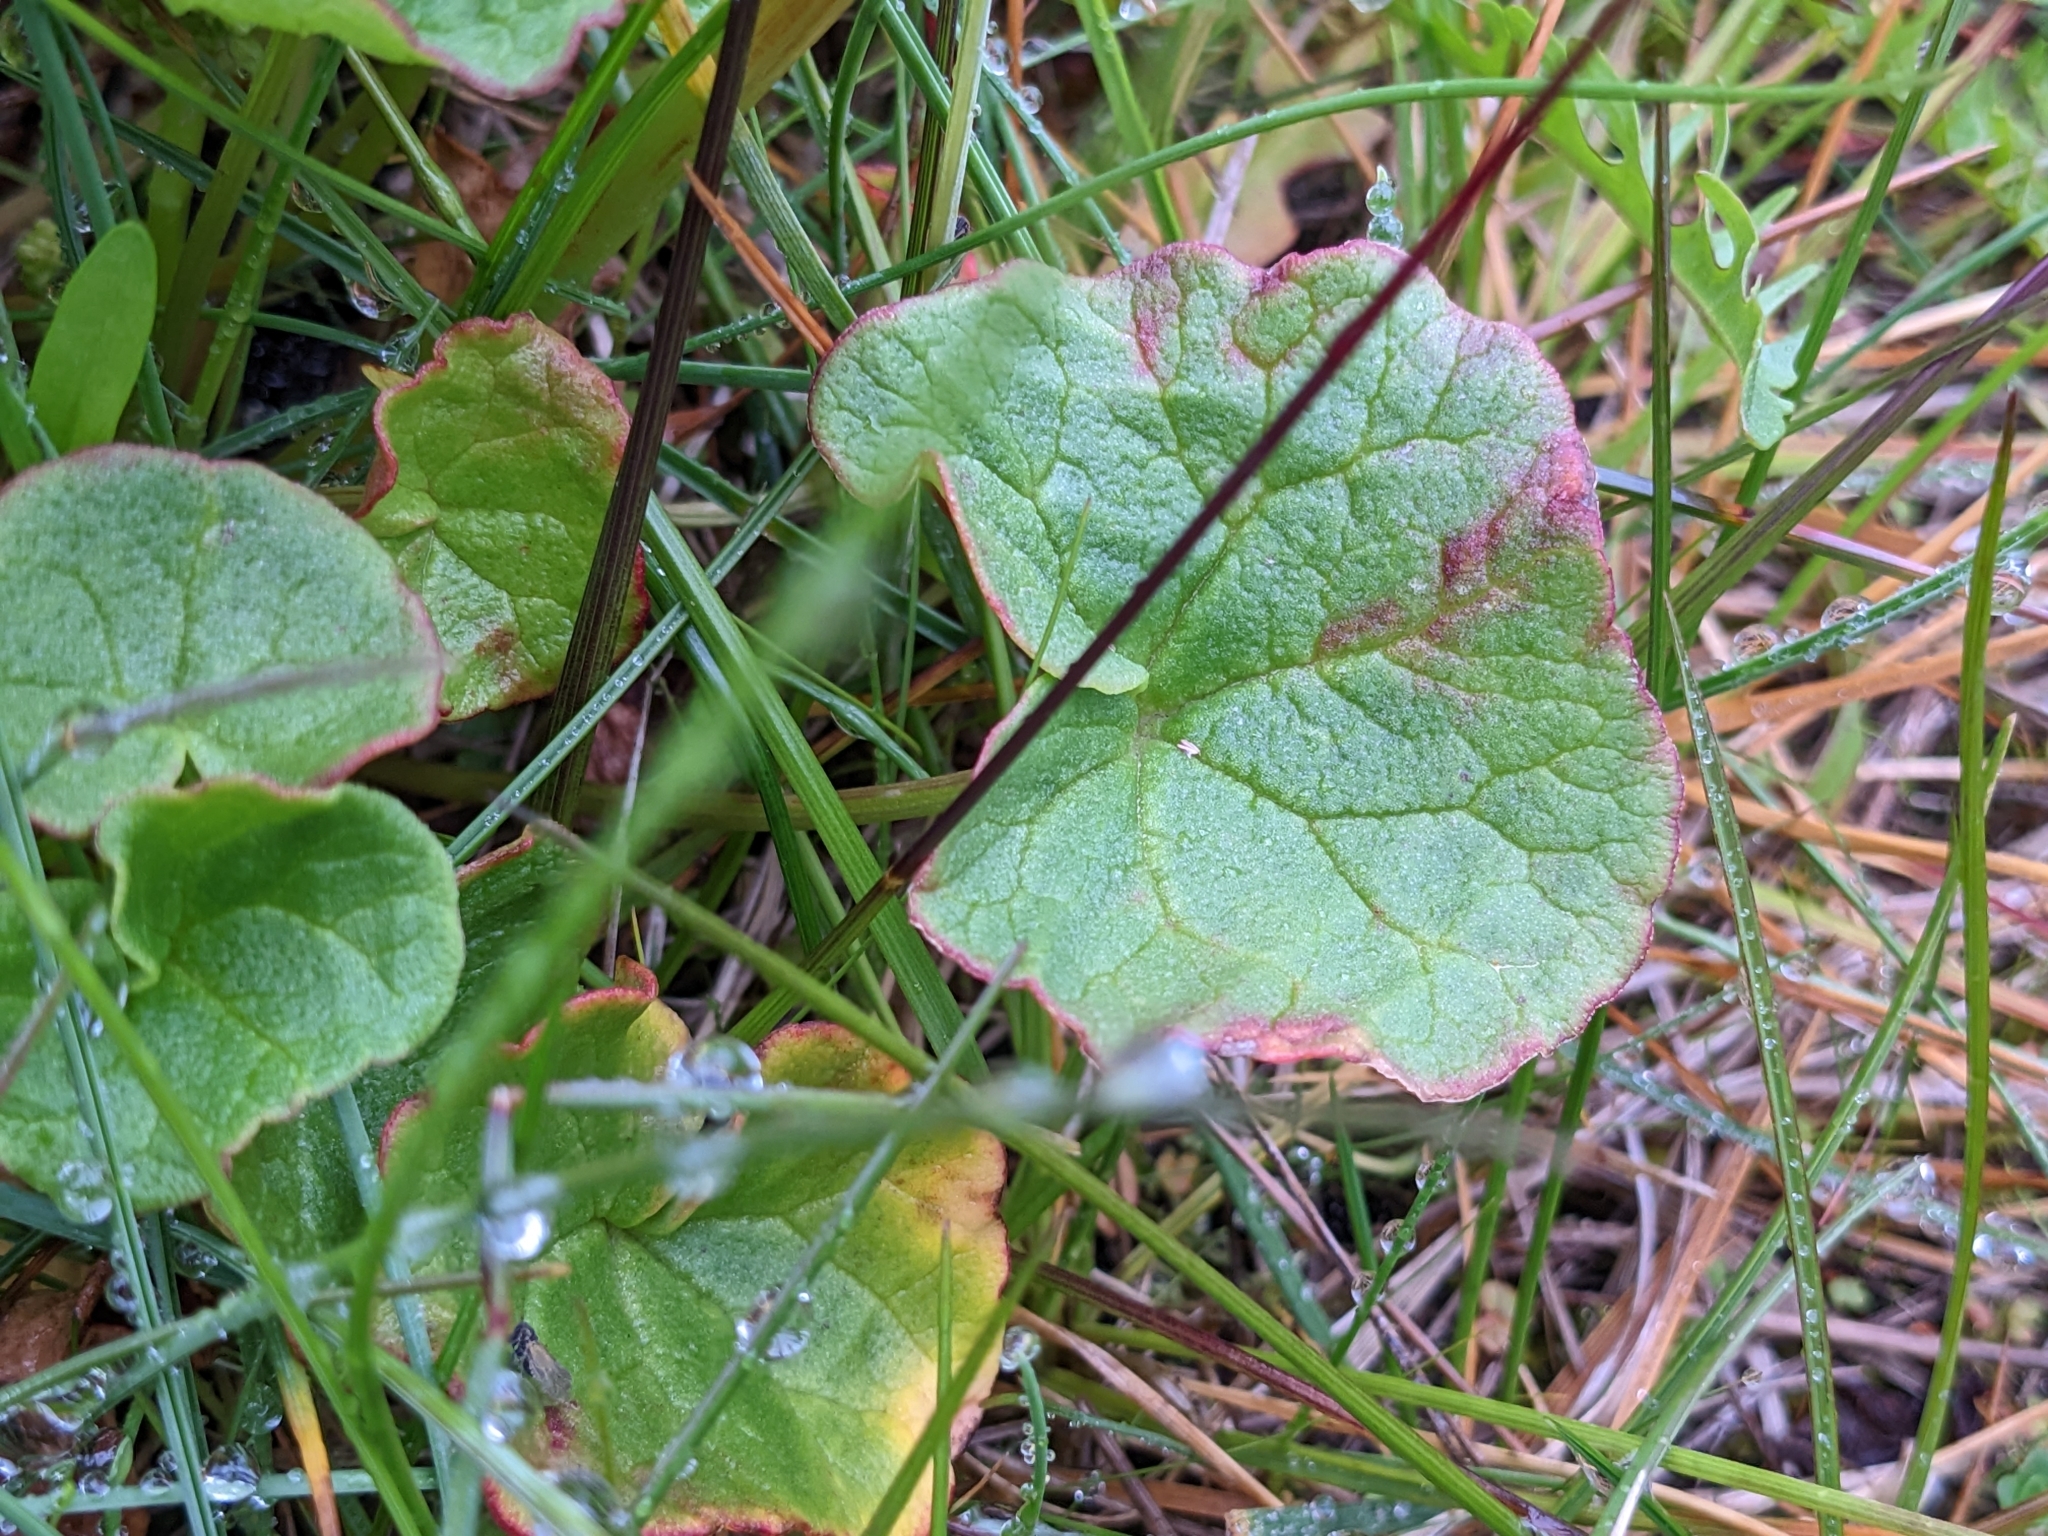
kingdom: Plantae
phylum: Tracheophyta
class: Magnoliopsida
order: Caryophyllales
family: Polygonaceae
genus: Oxyria
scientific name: Oxyria digyna
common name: Alpine mountain-sorrel
